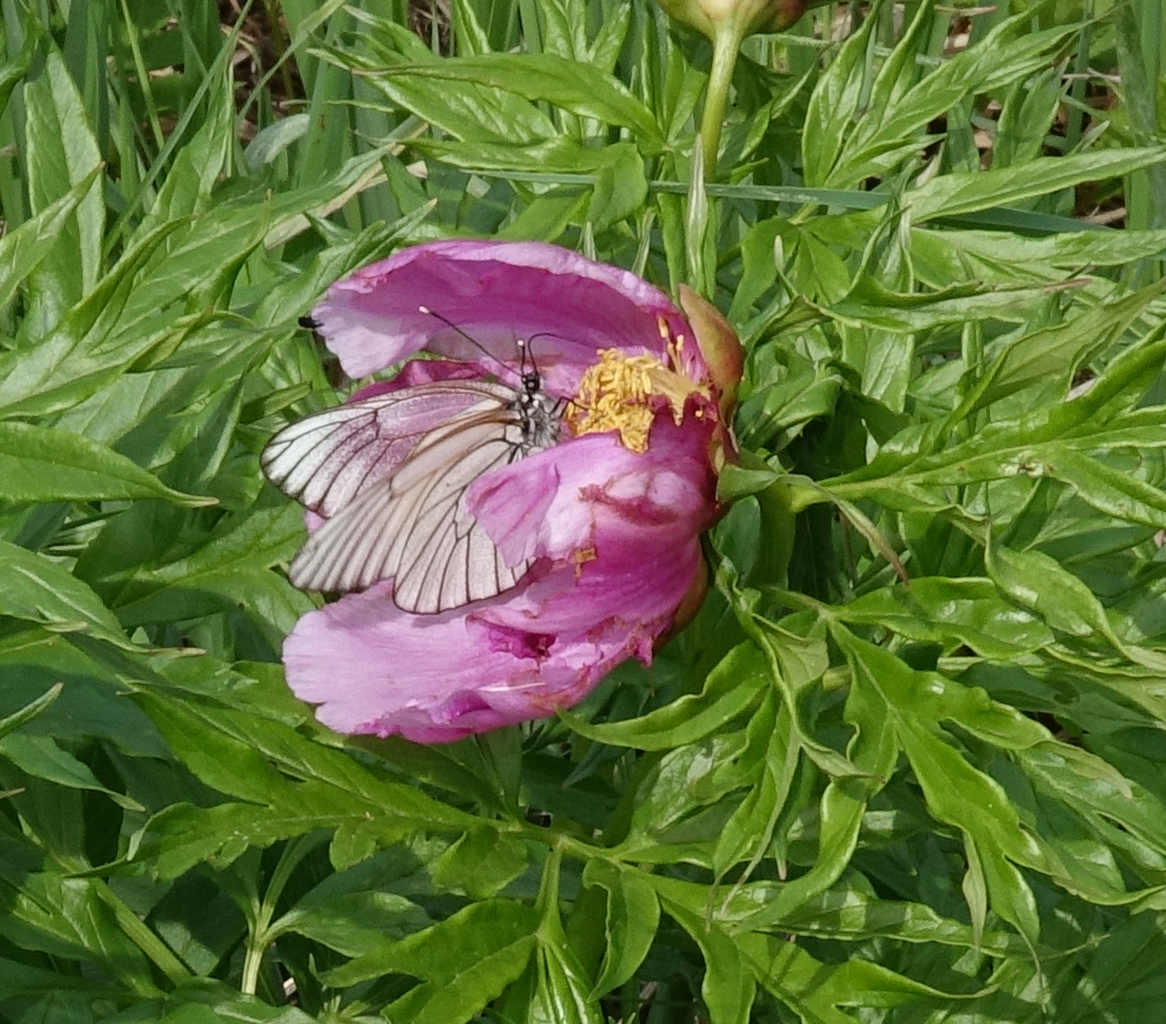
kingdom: Animalia
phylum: Arthropoda
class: Insecta
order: Lepidoptera
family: Pieridae
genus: Aporia
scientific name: Aporia crataegi
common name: Black-veined white
